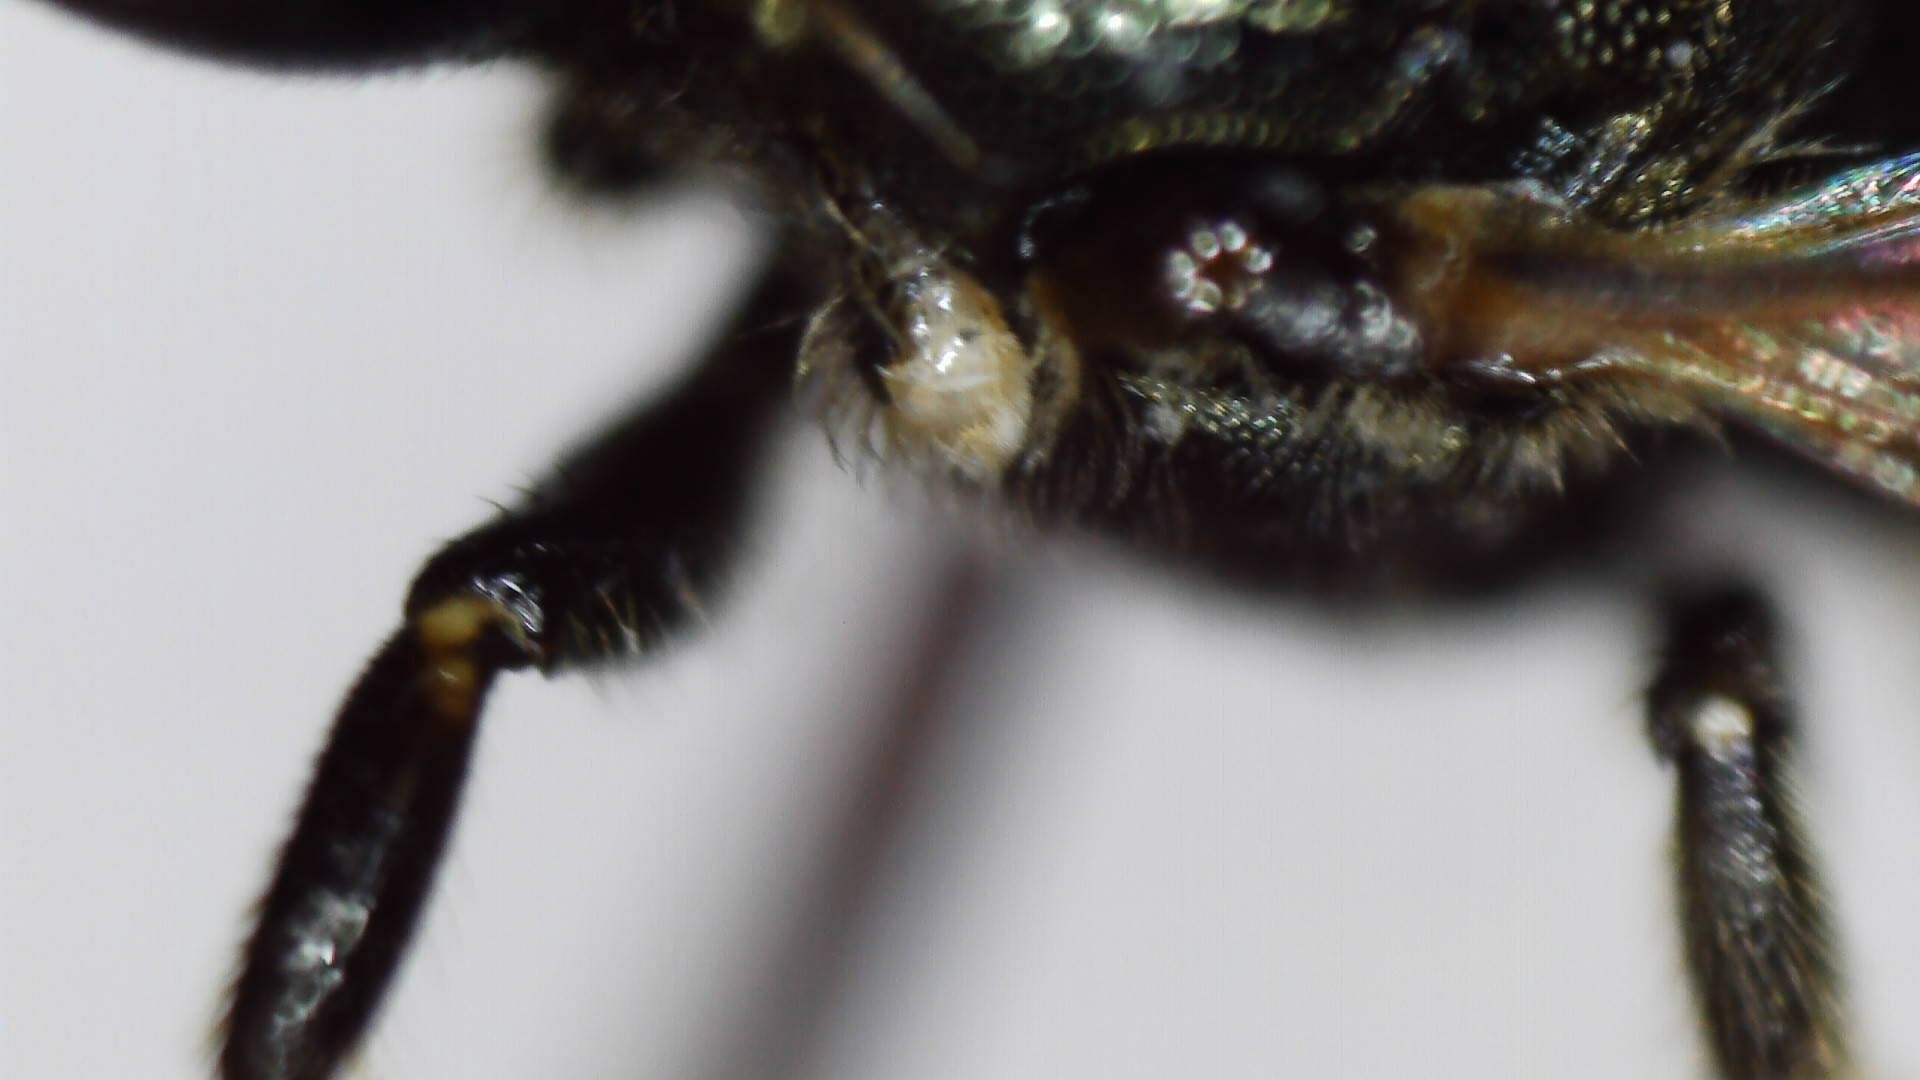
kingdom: Animalia
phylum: Arthropoda
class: Insecta
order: Hymenoptera
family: Apidae
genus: Zadontomerus
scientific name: Zadontomerus
